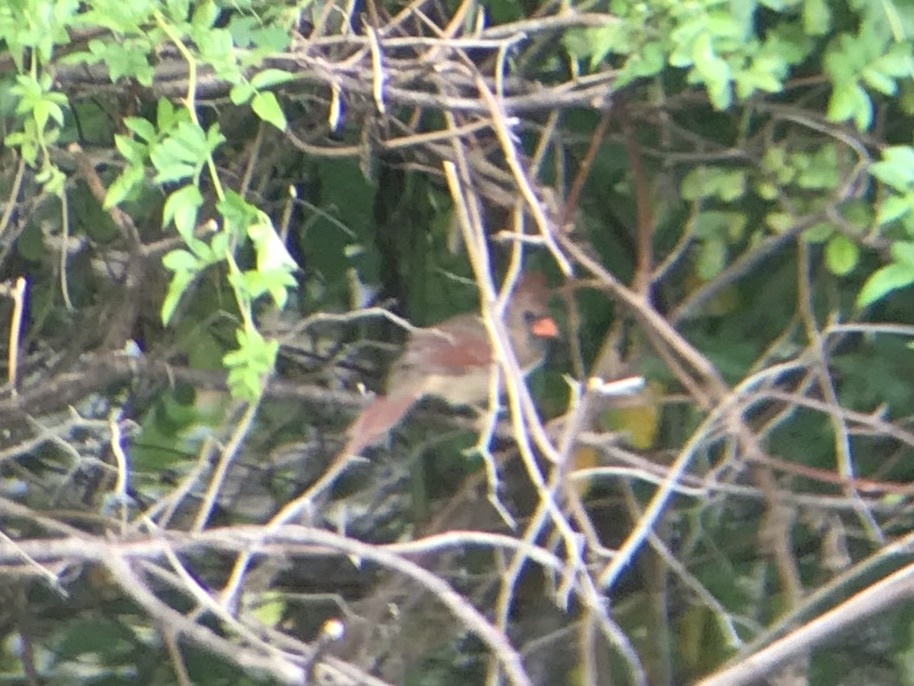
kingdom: Animalia
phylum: Chordata
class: Aves
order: Passeriformes
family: Cardinalidae
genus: Cardinalis
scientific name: Cardinalis cardinalis
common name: Northern cardinal
